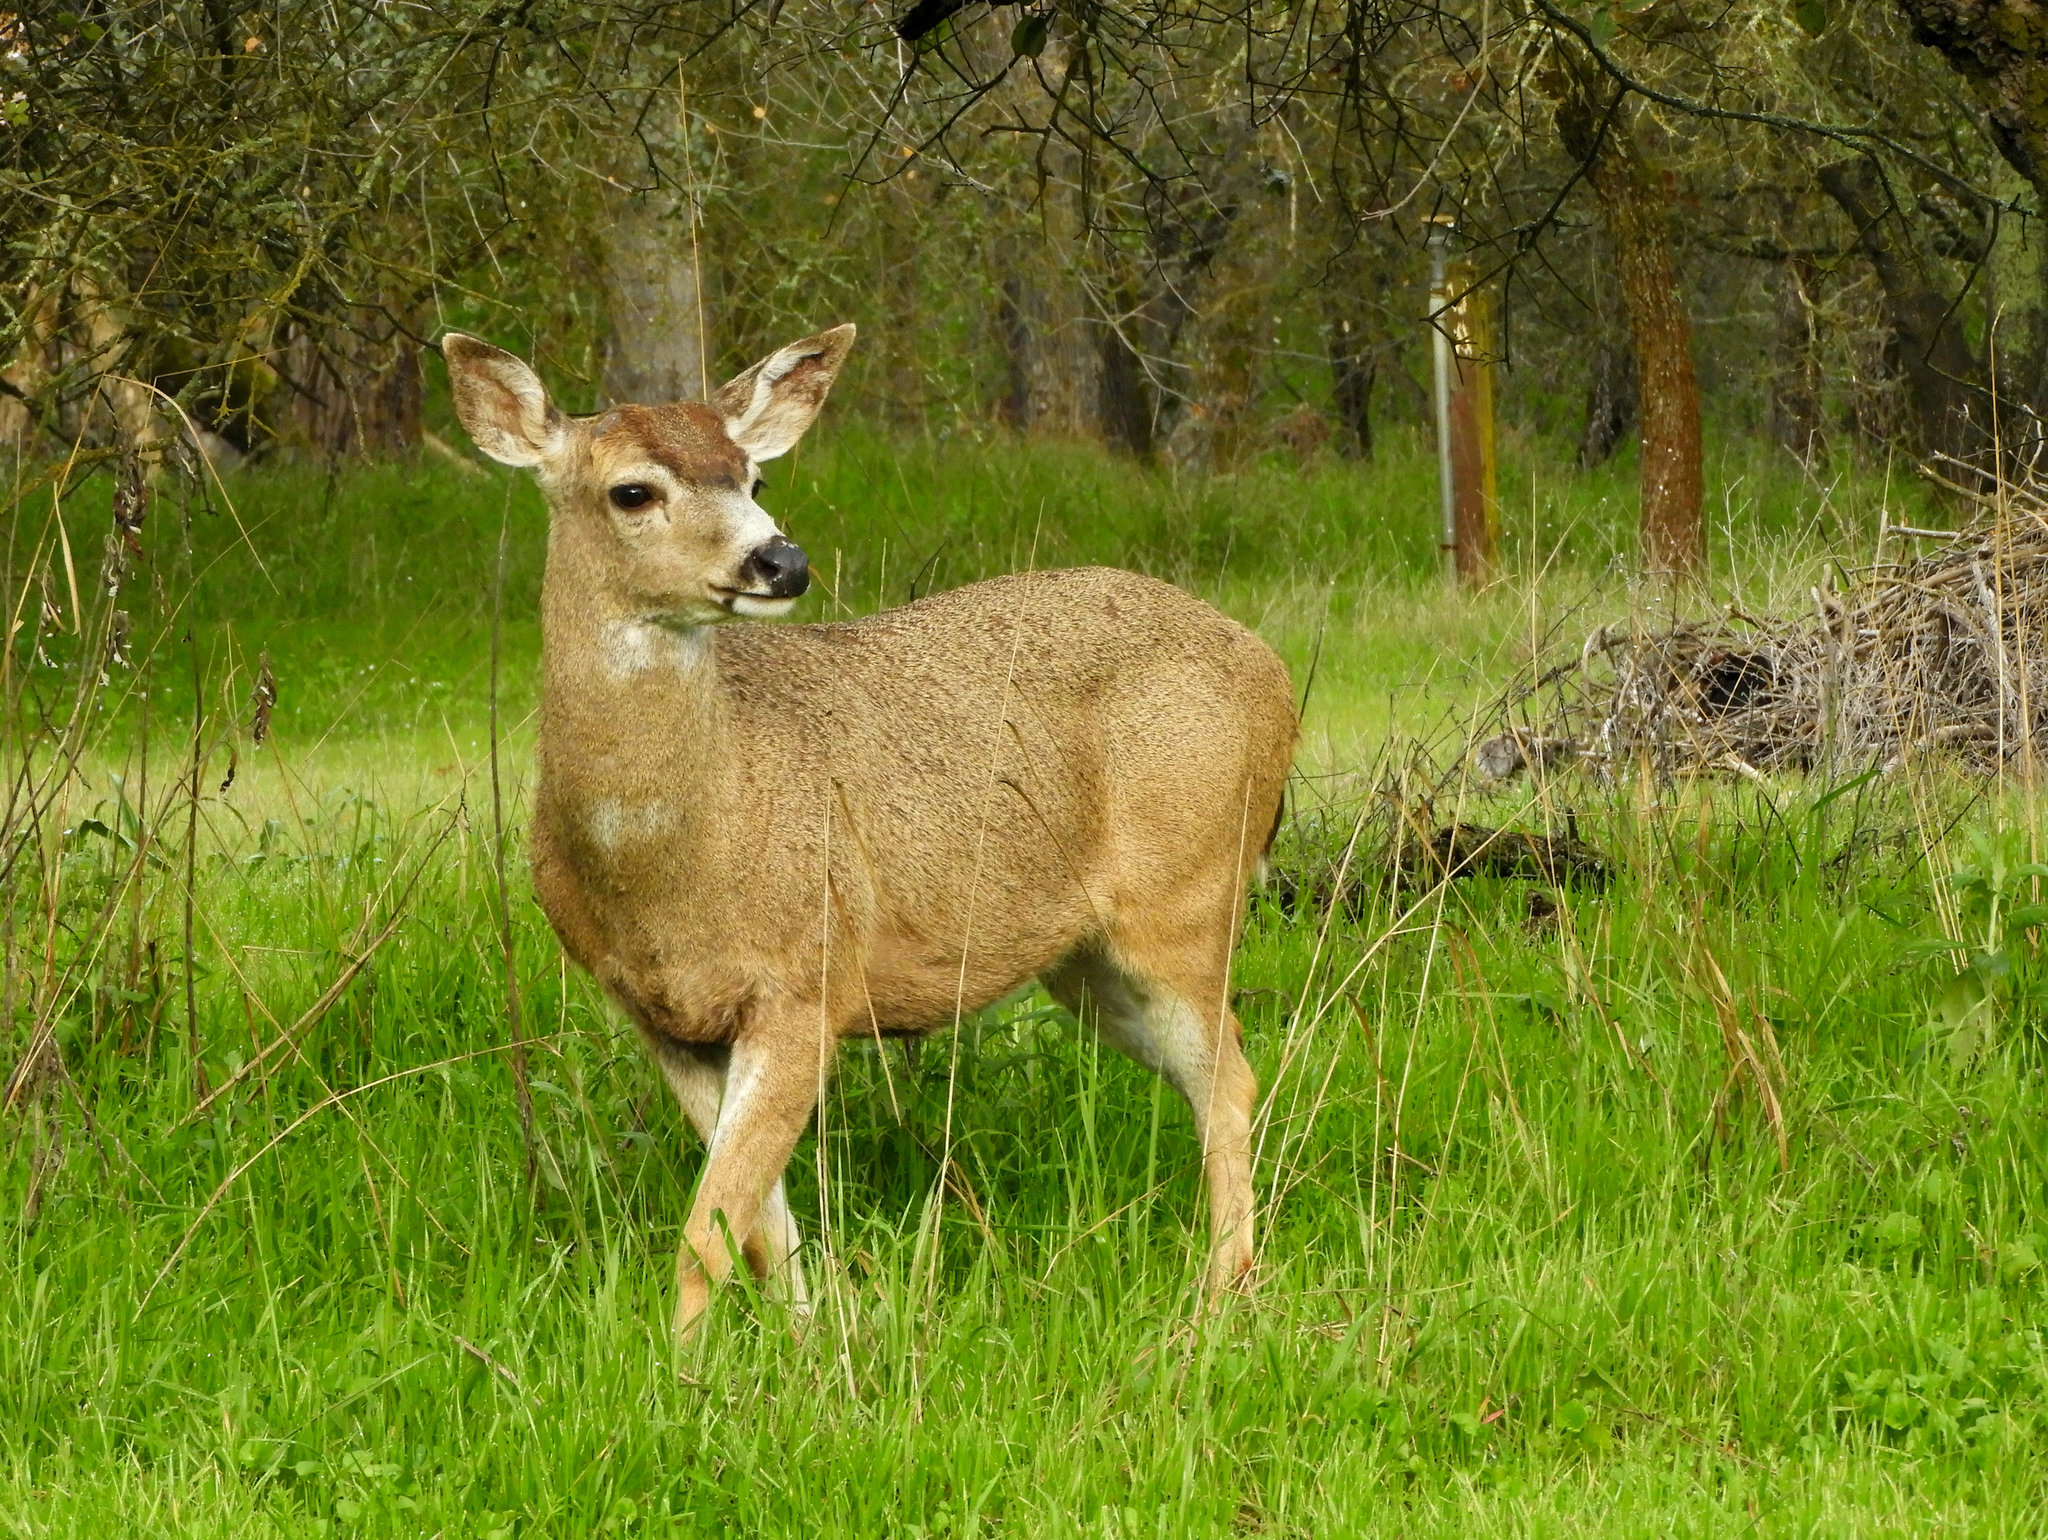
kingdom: Animalia
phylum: Chordata
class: Mammalia
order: Artiodactyla
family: Cervidae
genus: Odocoileus
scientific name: Odocoileus hemionus
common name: Mule deer
